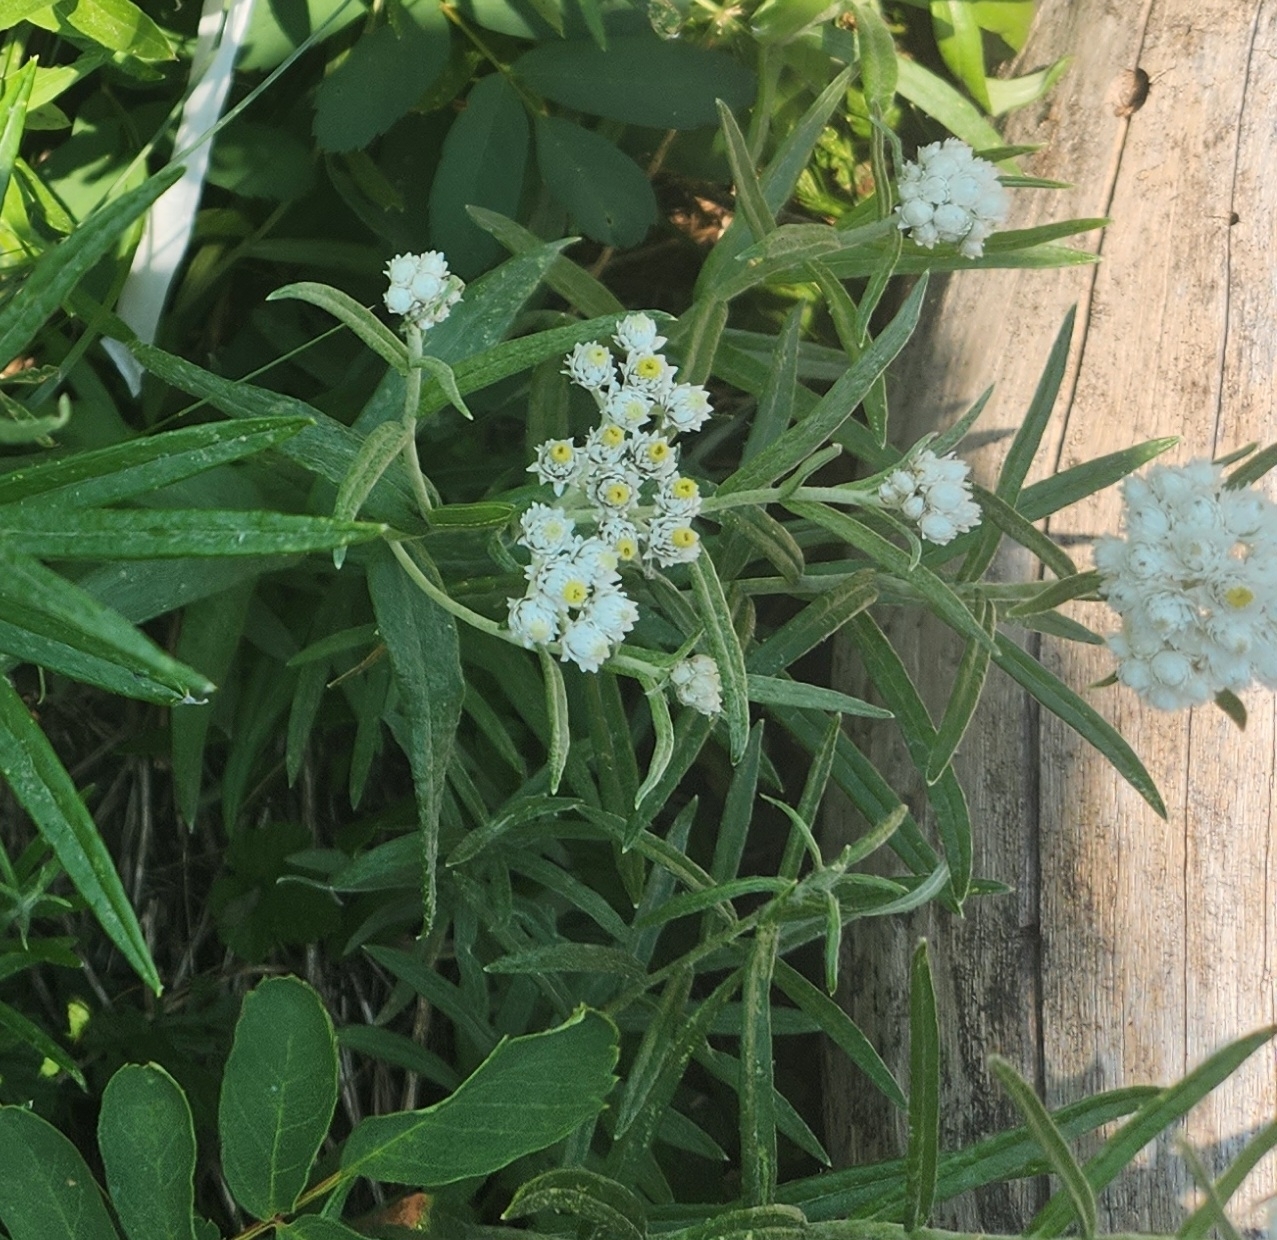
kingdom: Plantae
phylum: Tracheophyta
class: Magnoliopsida
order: Asterales
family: Asteraceae
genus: Anaphalis
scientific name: Anaphalis margaritacea
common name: Pearly everlasting
